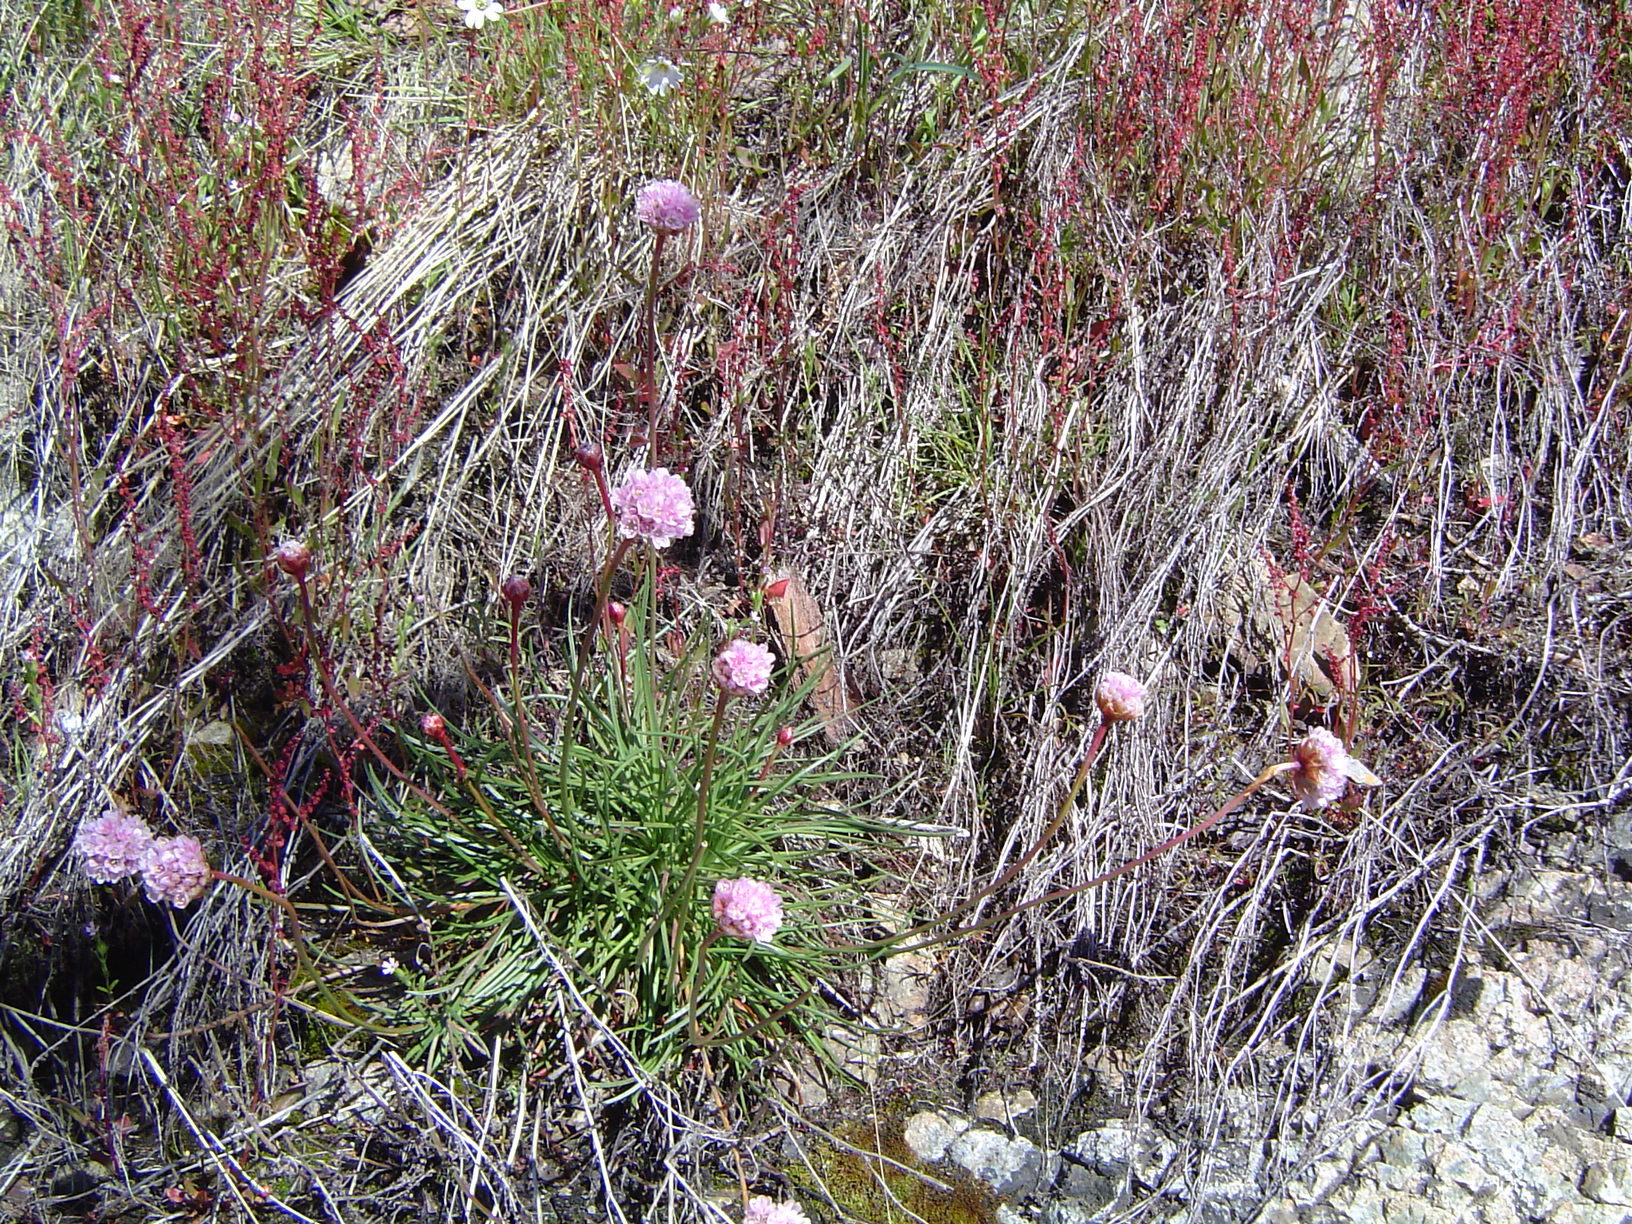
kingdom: Plantae
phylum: Tracheophyta
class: Magnoliopsida
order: Caryophyllales
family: Plumbaginaceae
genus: Armeria
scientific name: Armeria curvifolia
